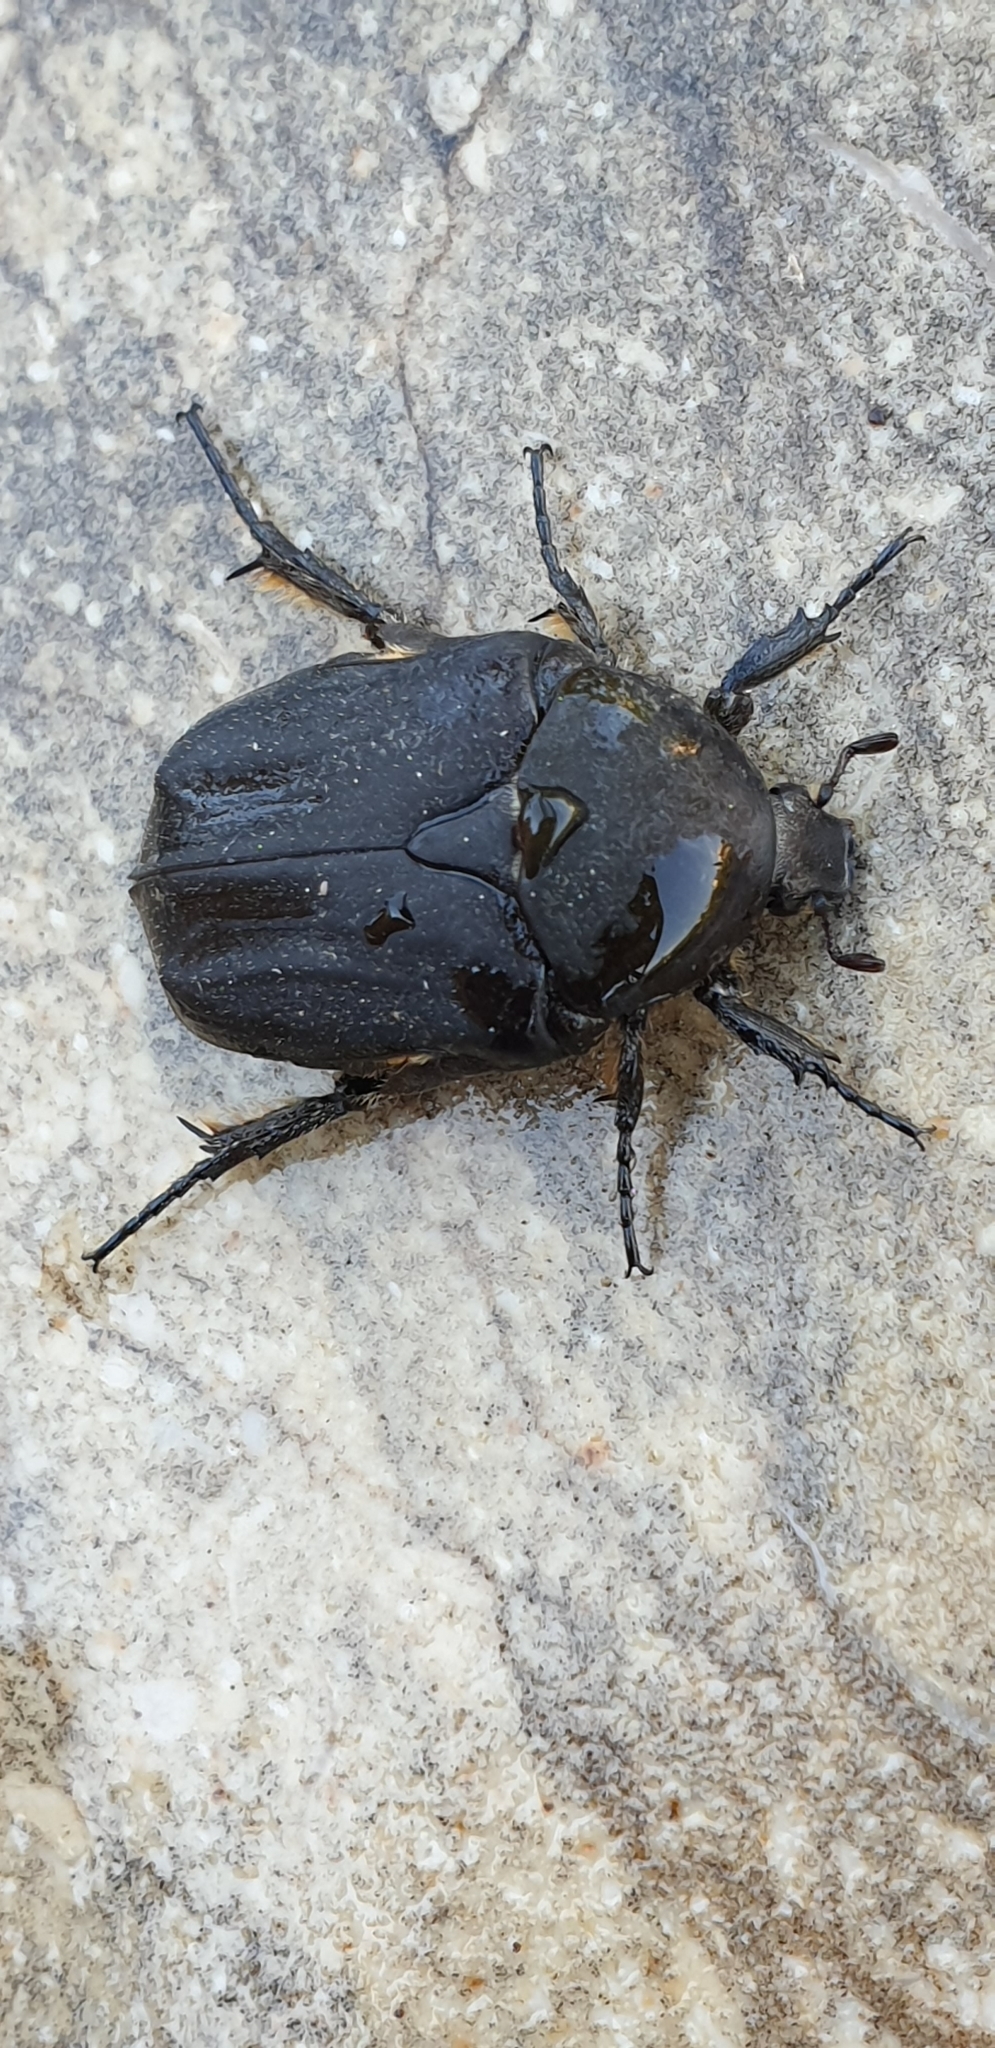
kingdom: Animalia
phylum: Arthropoda
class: Insecta
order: Coleoptera
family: Scarabaeidae
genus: Protaetia
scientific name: Protaetia morio
